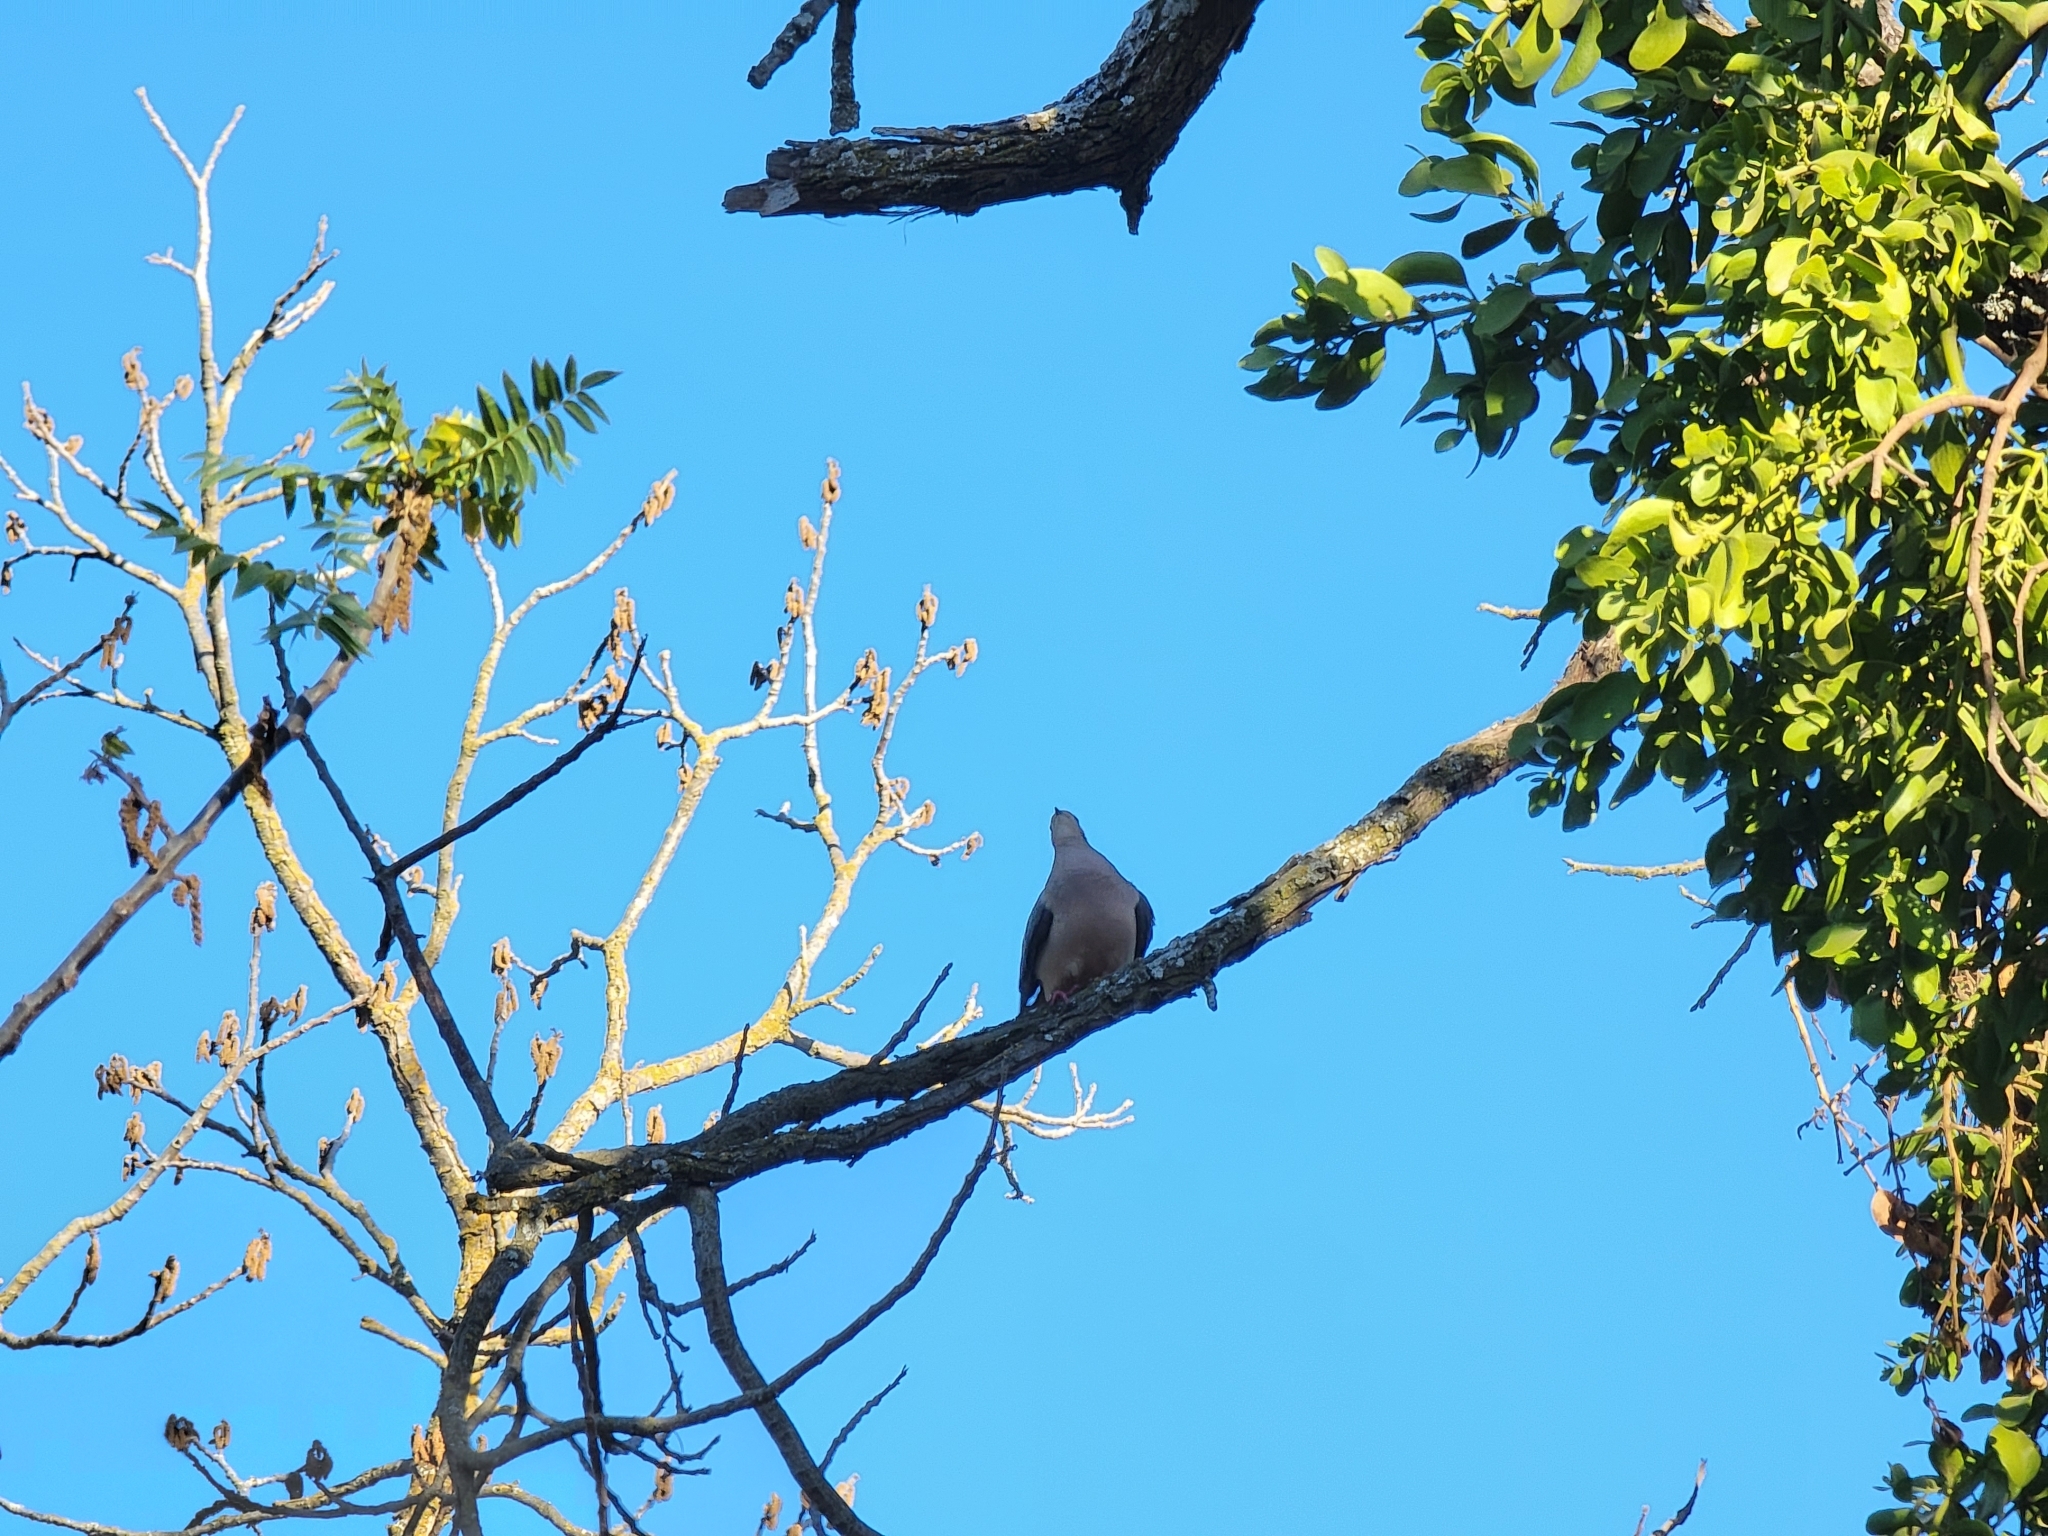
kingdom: Animalia
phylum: Chordata
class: Aves
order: Columbiformes
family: Columbidae
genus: Zenaida
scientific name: Zenaida macroura
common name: Mourning dove
